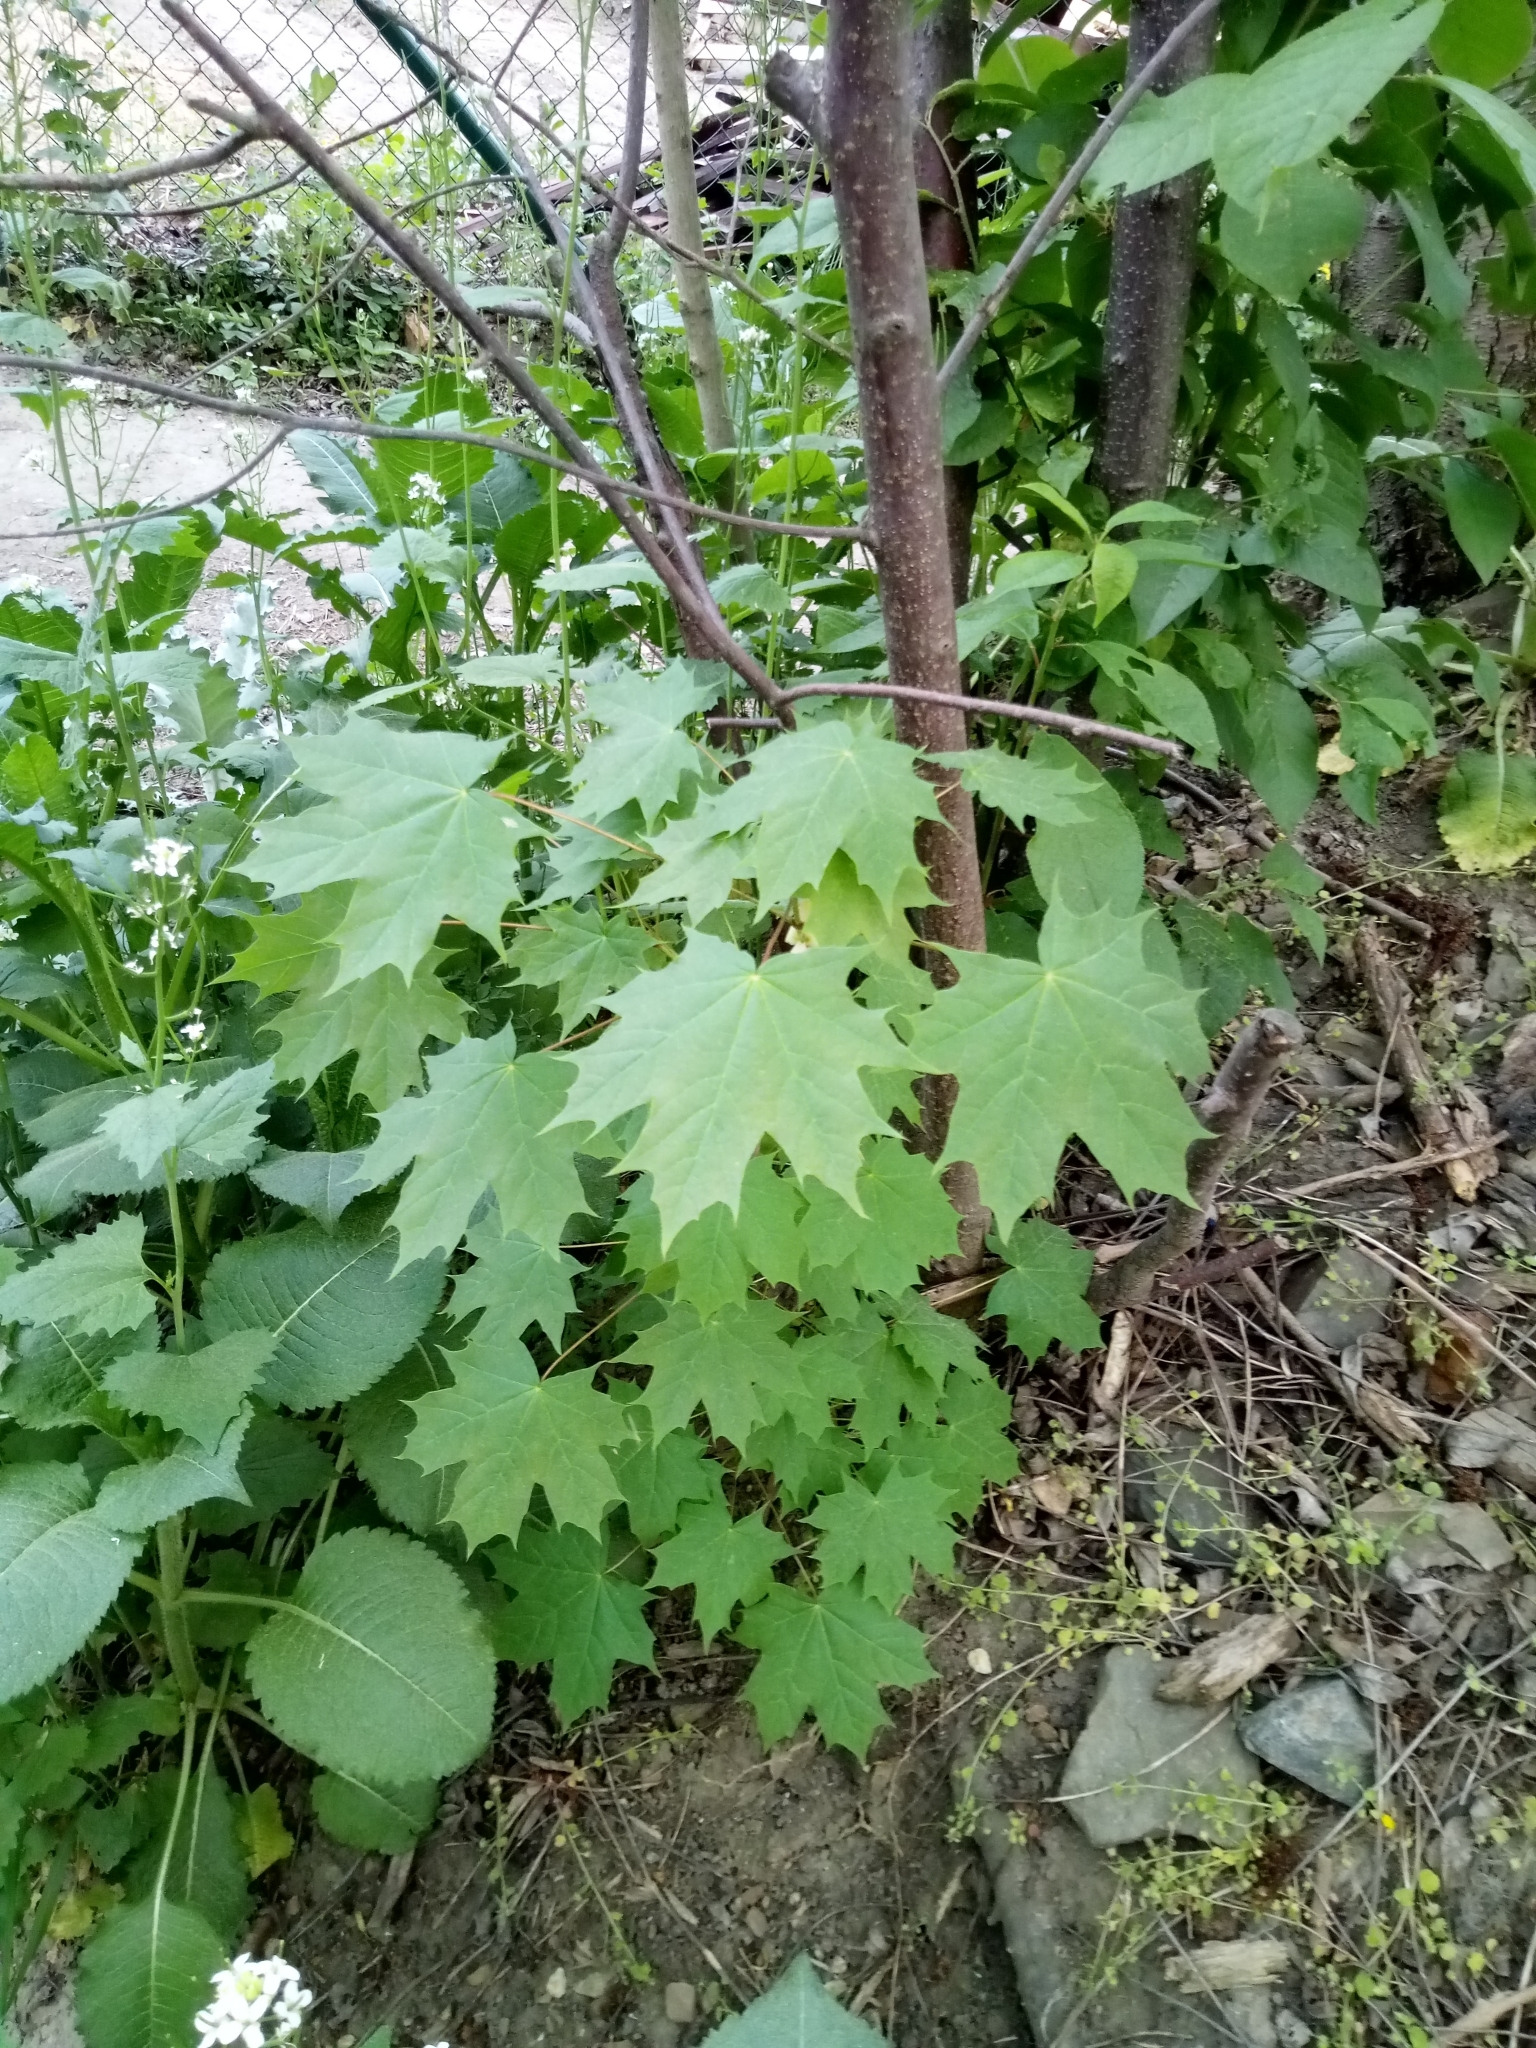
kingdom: Plantae
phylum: Tracheophyta
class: Magnoliopsida
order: Sapindales
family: Sapindaceae
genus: Acer
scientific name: Acer platanoides
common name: Norway maple
